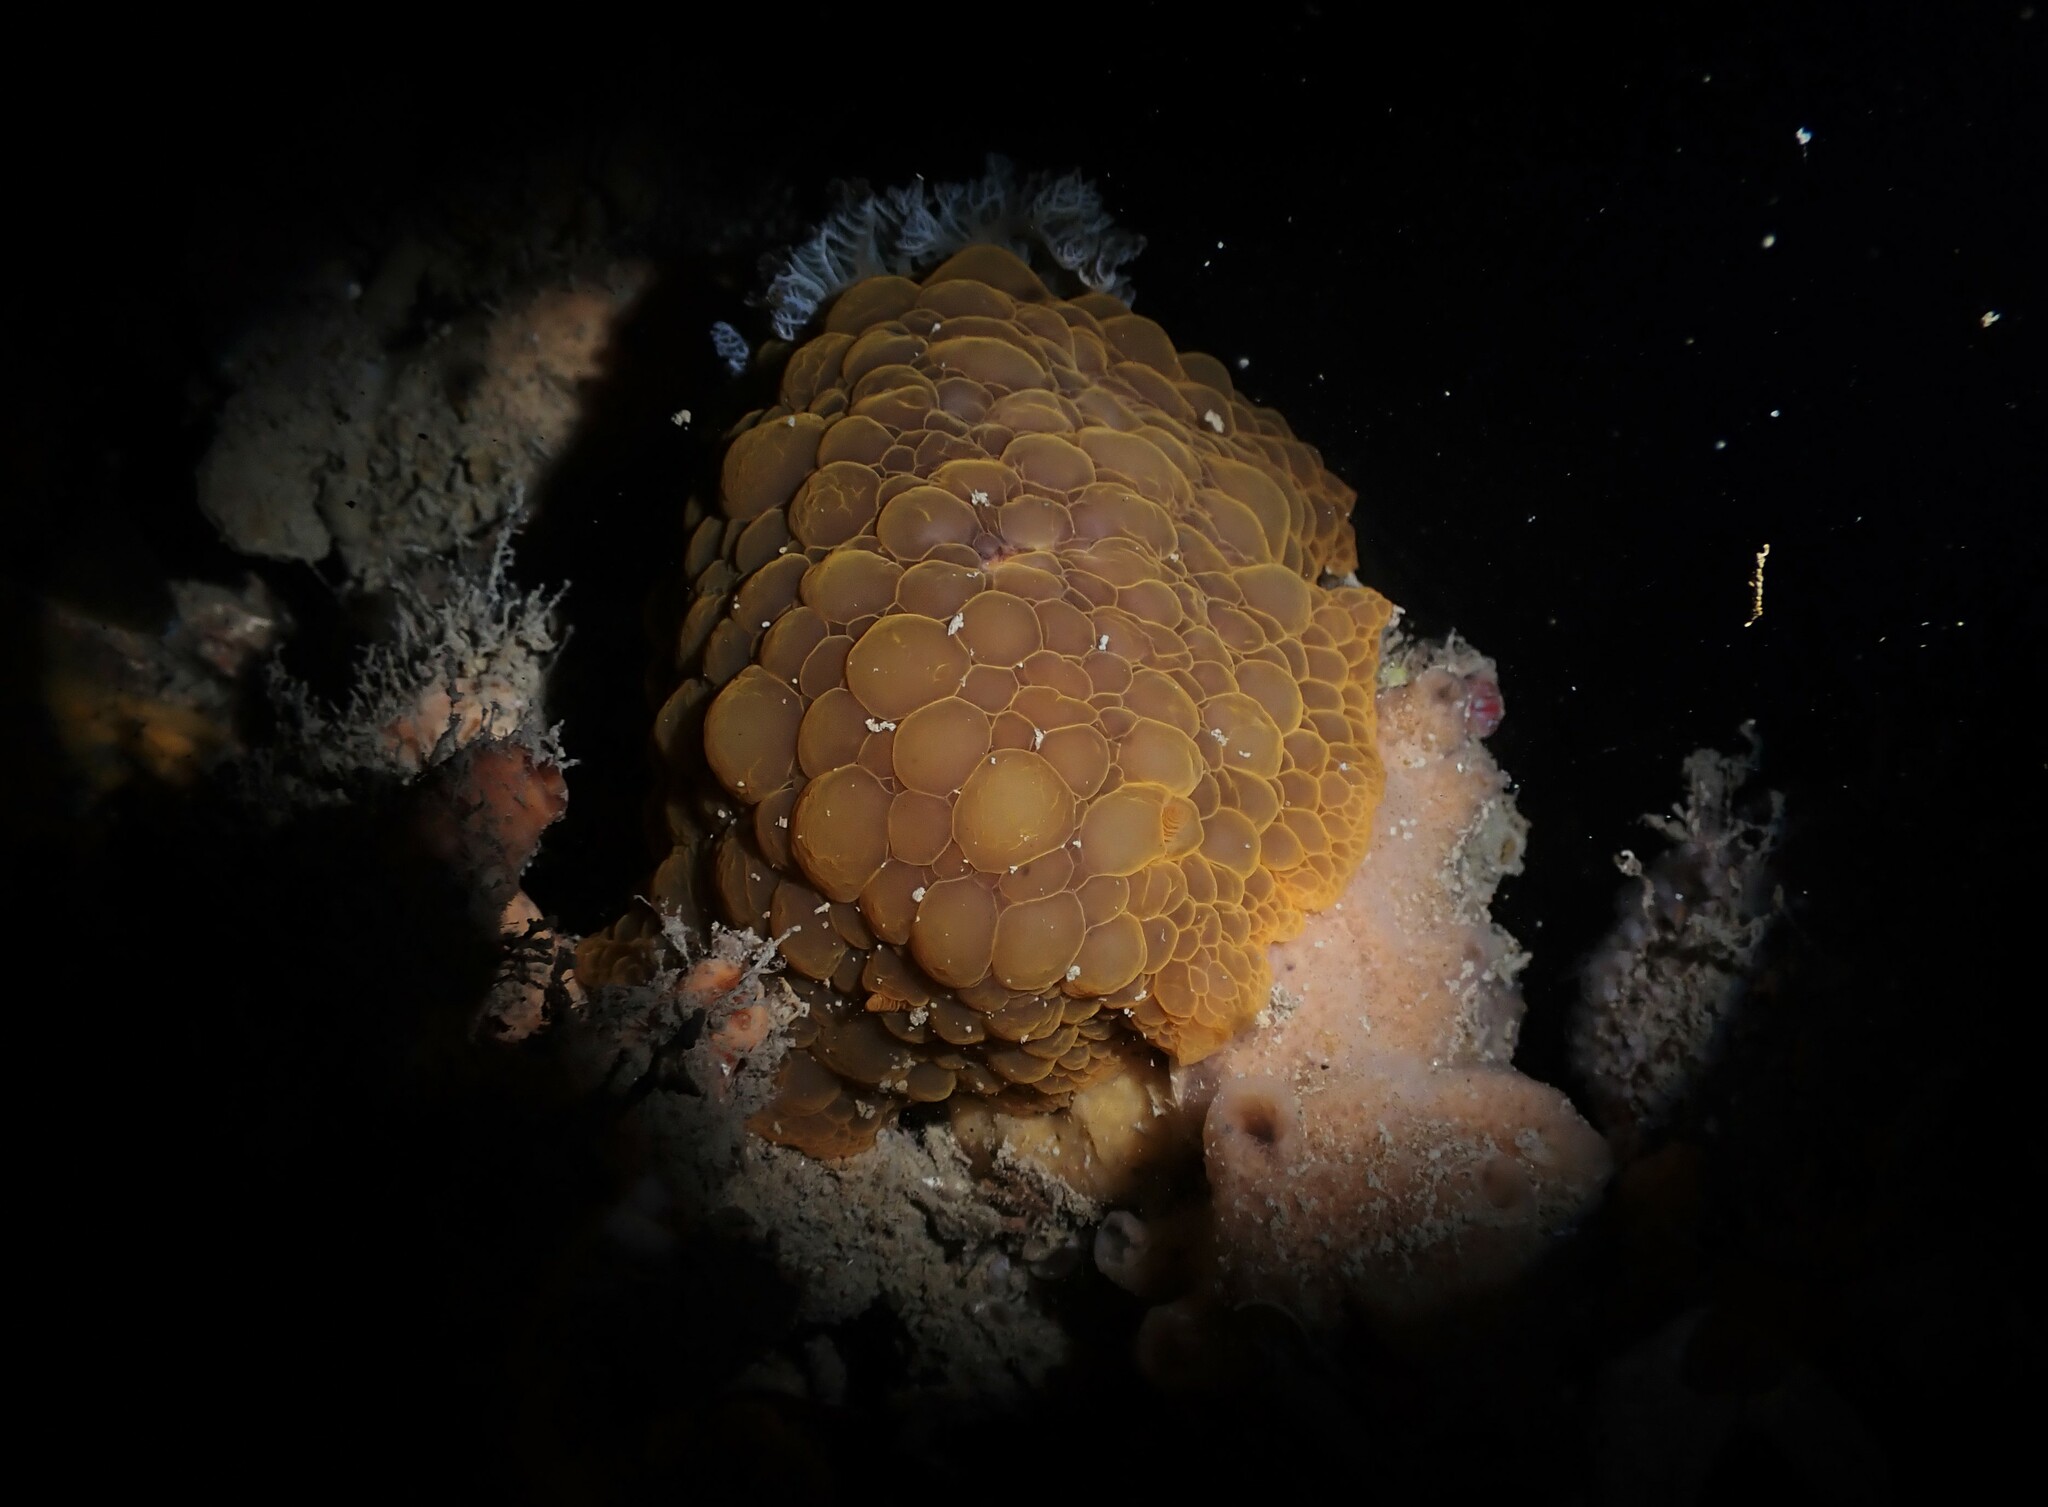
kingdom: Animalia
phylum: Mollusca
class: Gastropoda
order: Nudibranchia
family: Dorididae
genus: Doris
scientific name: Doris wellingtonensis
